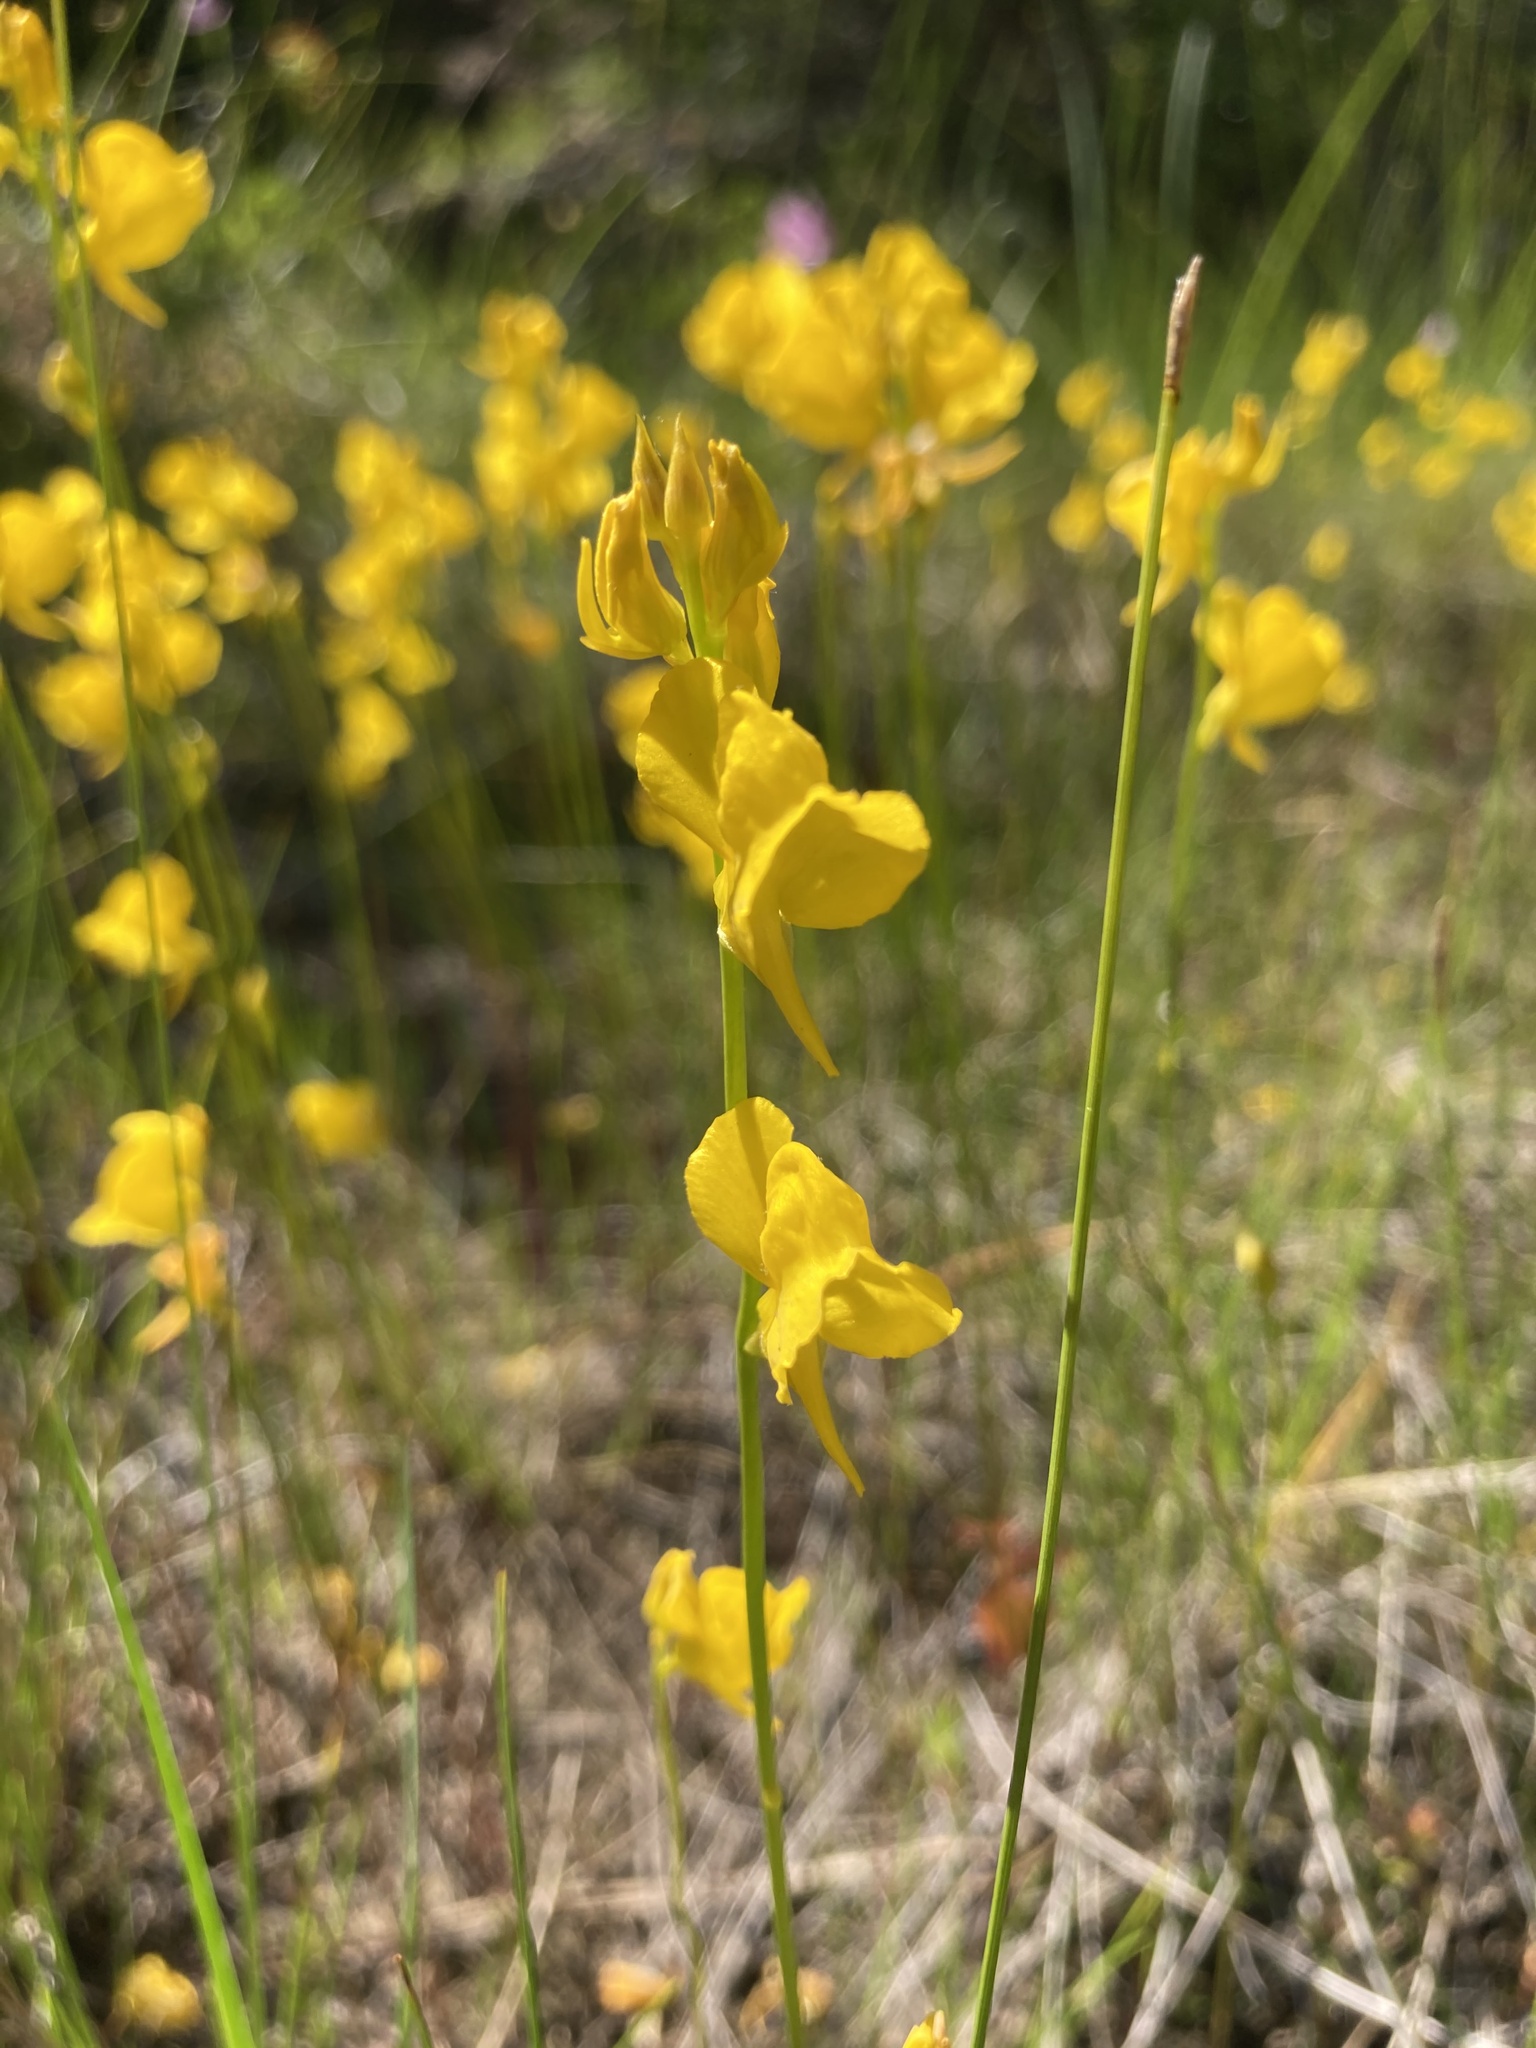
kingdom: Plantae
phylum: Tracheophyta
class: Magnoliopsida
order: Lamiales
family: Lentibulariaceae
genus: Utricularia
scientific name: Utricularia cornuta
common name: Horned bladderwort
